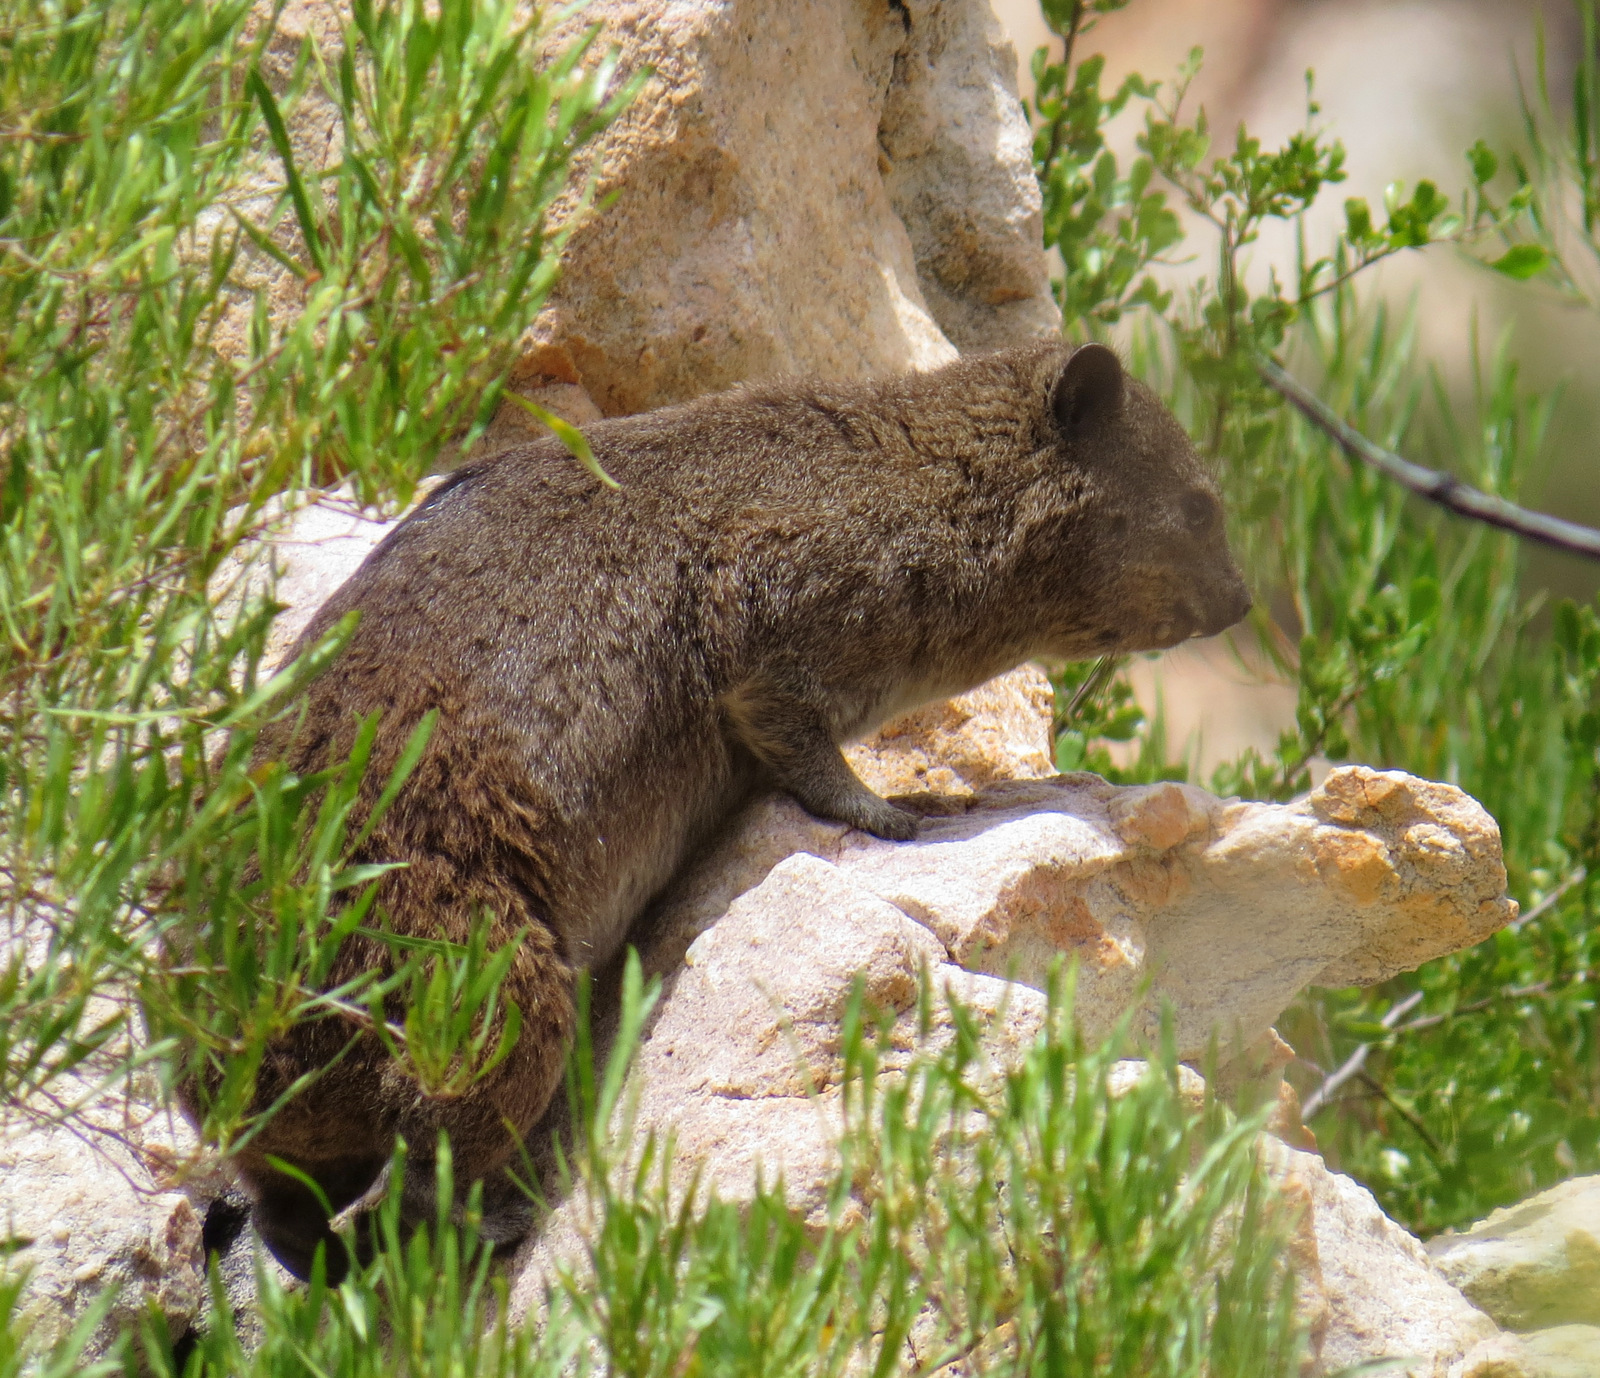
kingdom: Animalia
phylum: Chordata
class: Mammalia
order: Hyracoidea
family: Procaviidae
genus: Procavia
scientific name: Procavia capensis
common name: Rock hyrax
